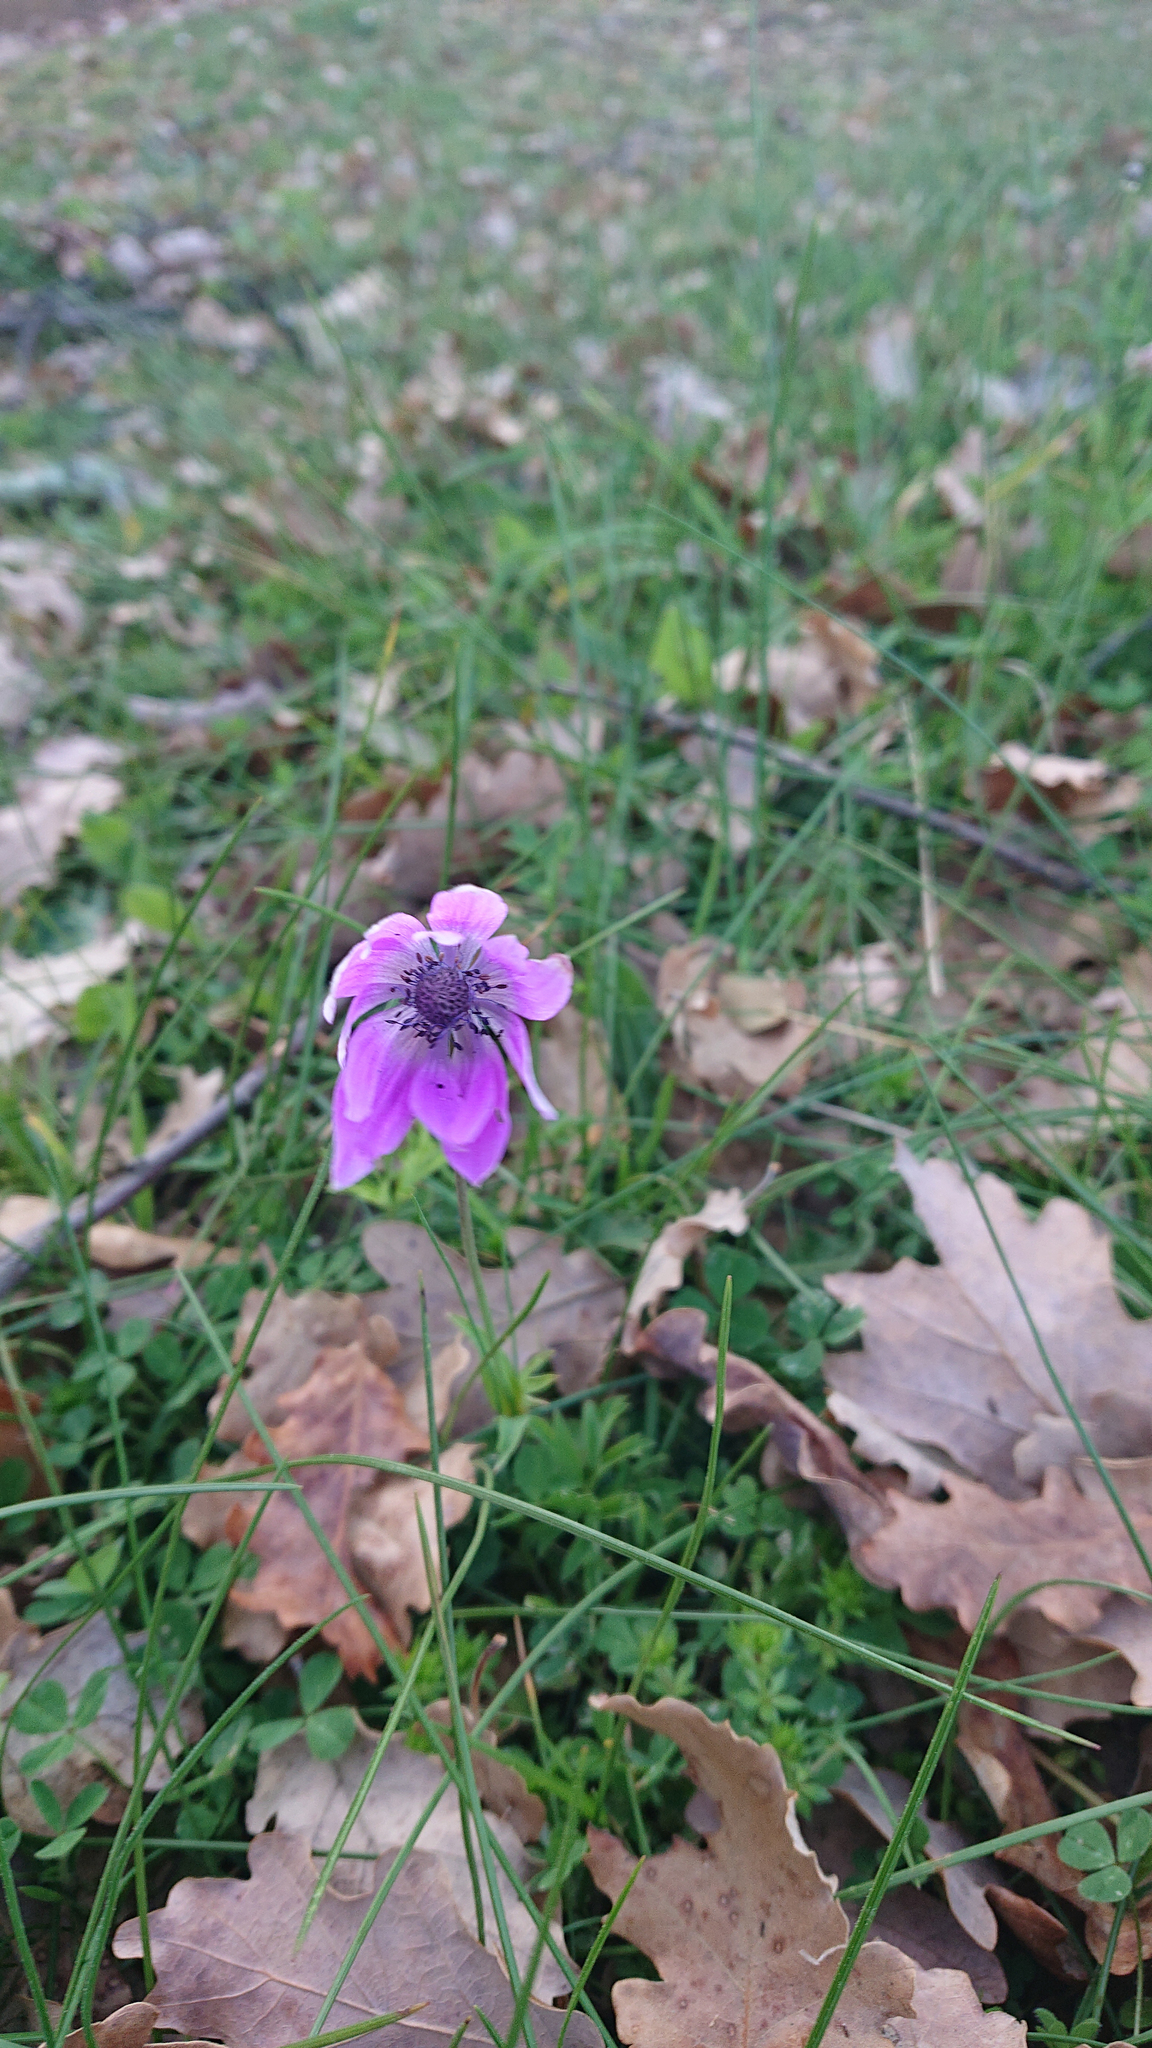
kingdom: Plantae
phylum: Tracheophyta
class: Magnoliopsida
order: Ranunculales
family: Ranunculaceae
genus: Anemone
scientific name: Anemone hortensis
